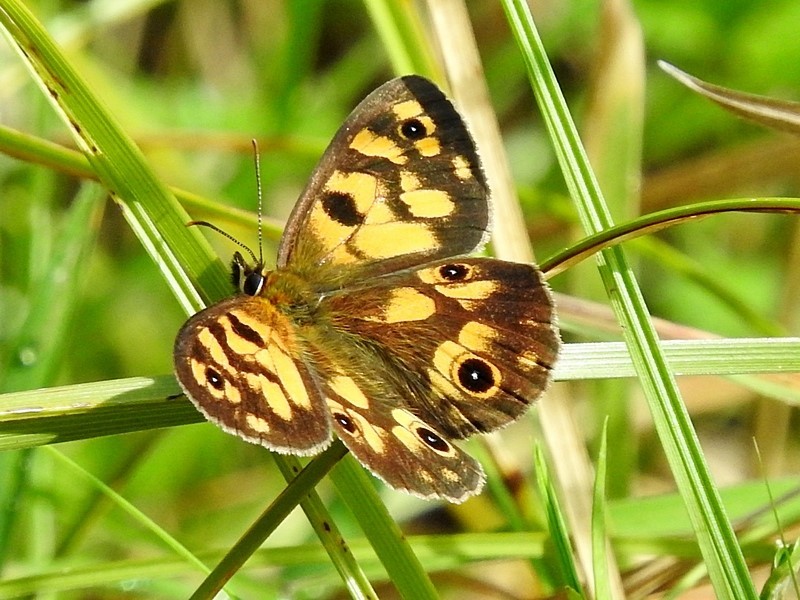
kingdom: Animalia
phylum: Arthropoda
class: Insecta
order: Lepidoptera
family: Nymphalidae
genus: Heteronympha
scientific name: Heteronympha cordace
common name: Bright-eyed brown
